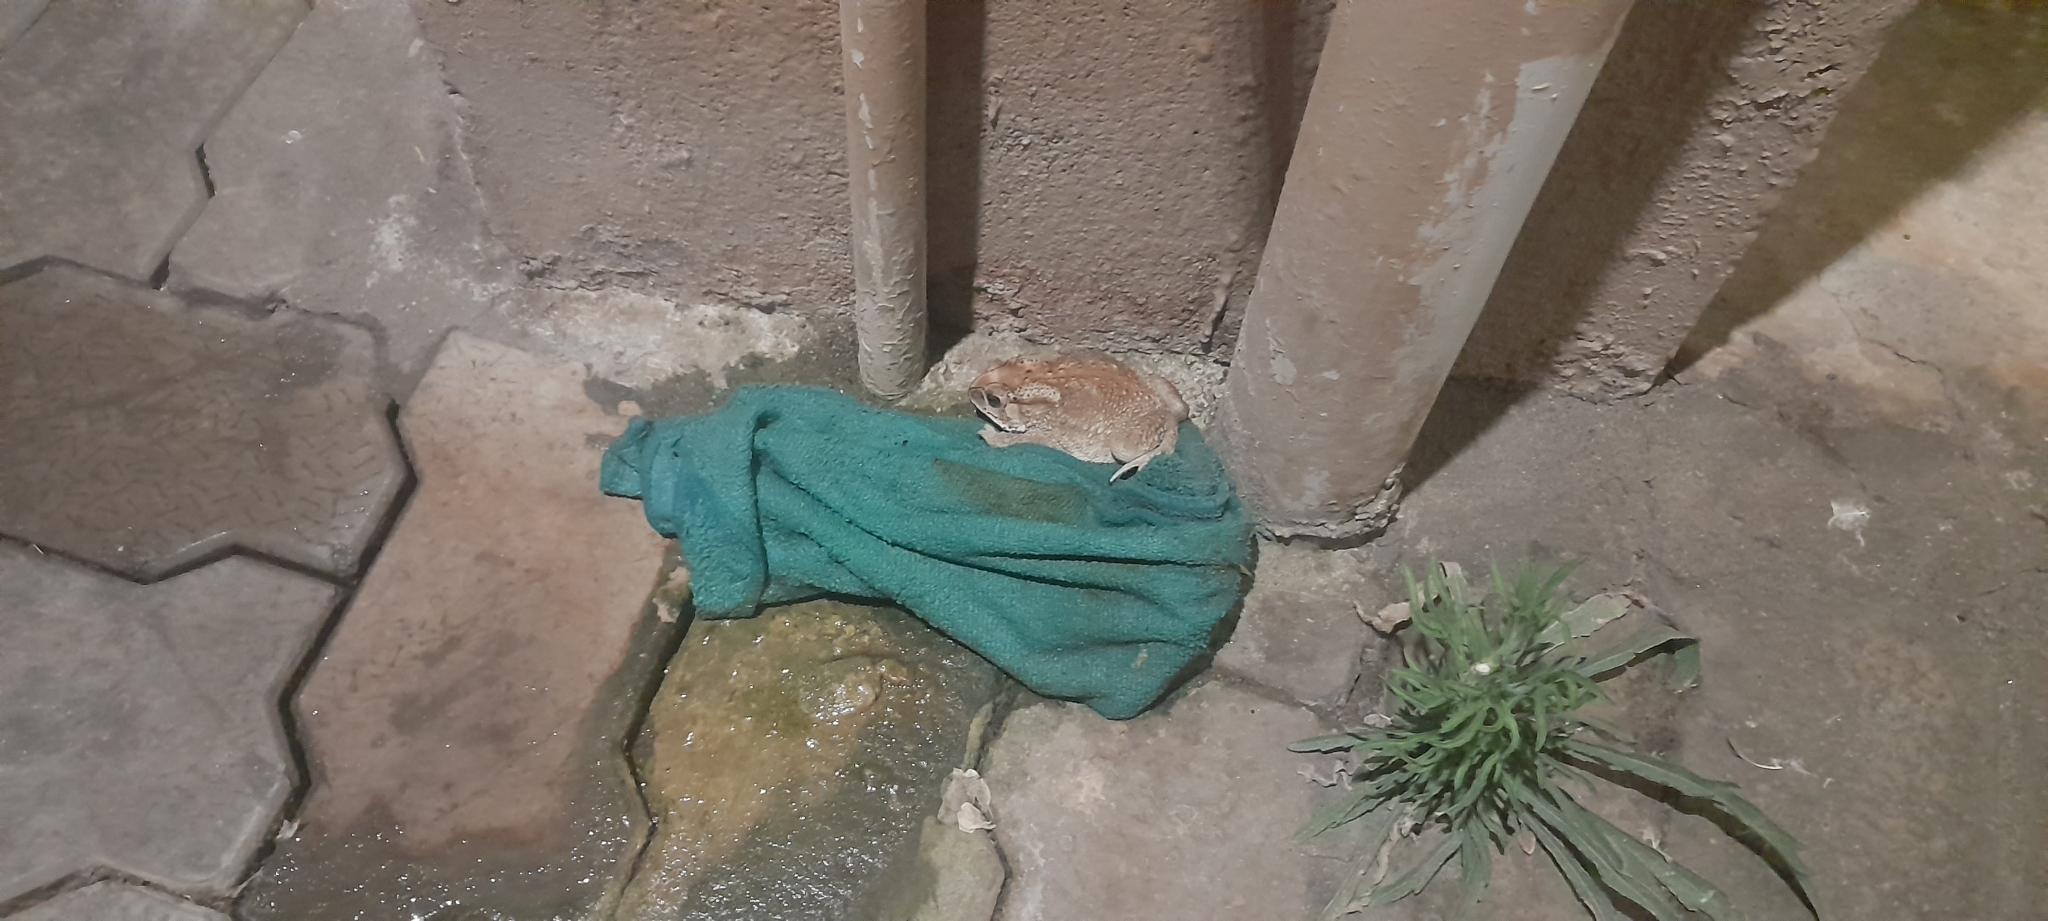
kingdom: Animalia
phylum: Chordata
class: Amphibia
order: Anura
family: Bufonidae
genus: Duttaphrynus
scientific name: Duttaphrynus melanostictus
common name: Common sunda toad
